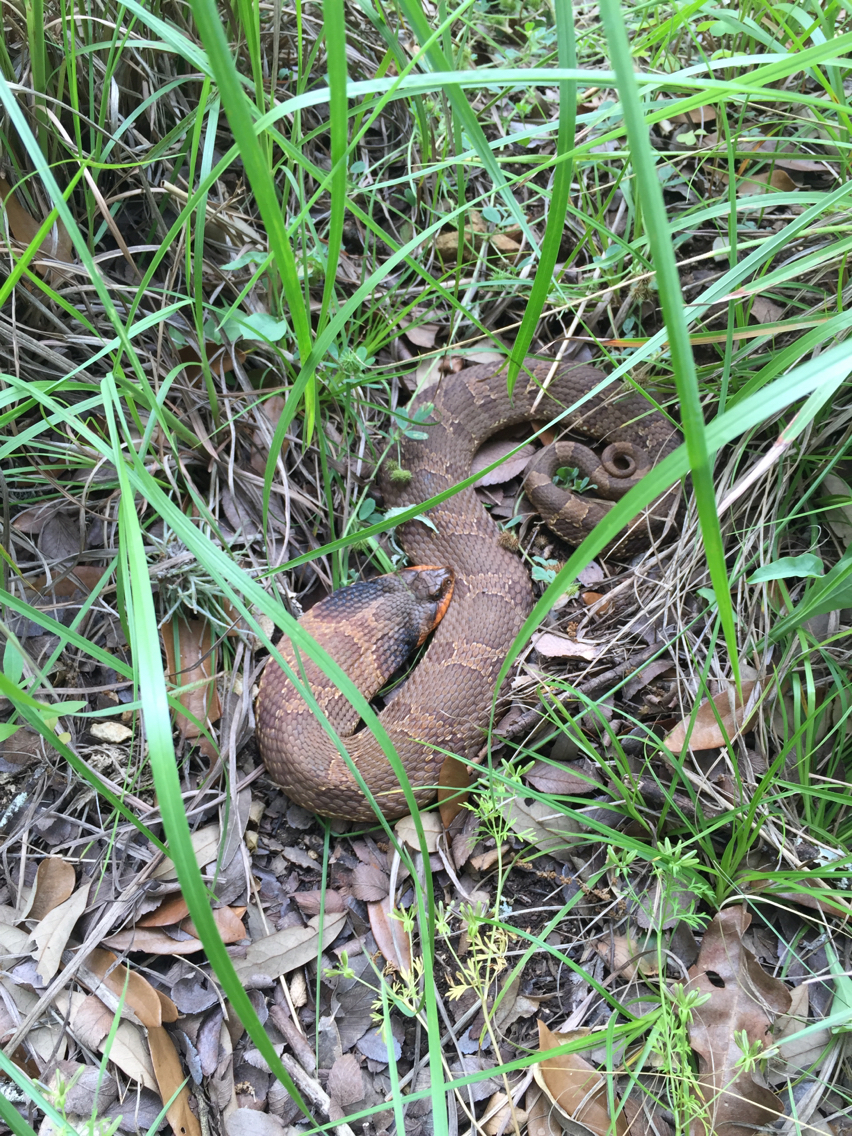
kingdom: Animalia
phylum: Chordata
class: Squamata
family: Colubridae
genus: Heterodon
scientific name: Heterodon platirhinos
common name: Eastern hognose snake
